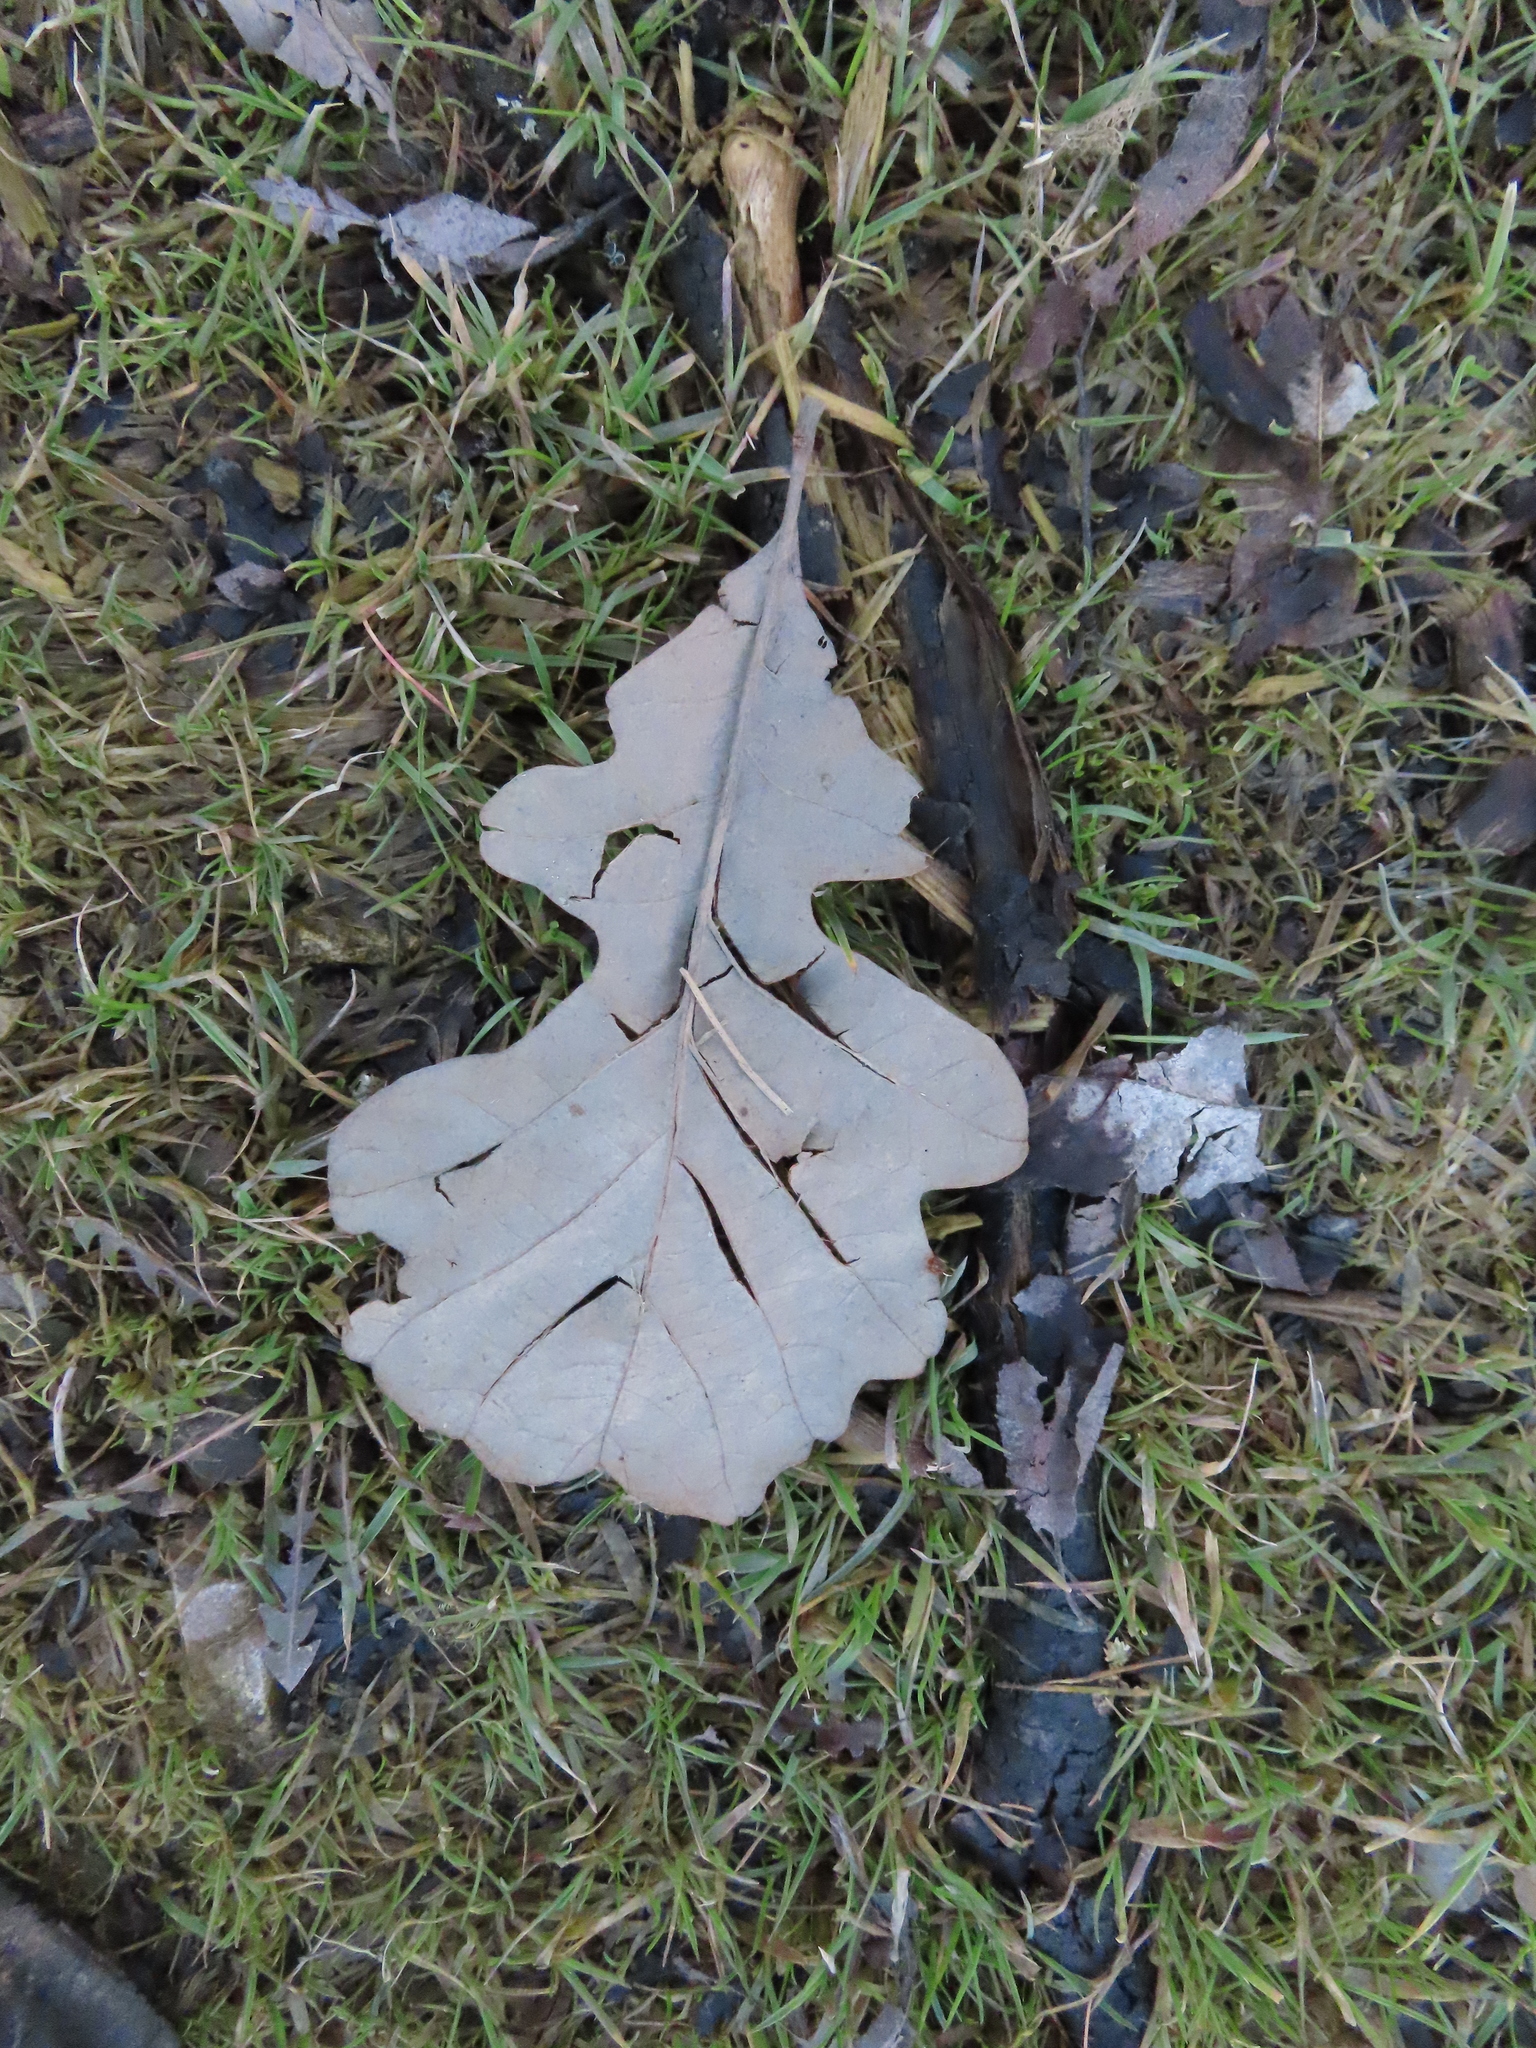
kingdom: Plantae
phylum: Tracheophyta
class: Magnoliopsida
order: Fagales
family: Fagaceae
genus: Quercus
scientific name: Quercus macrocarpa
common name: Bur oak
